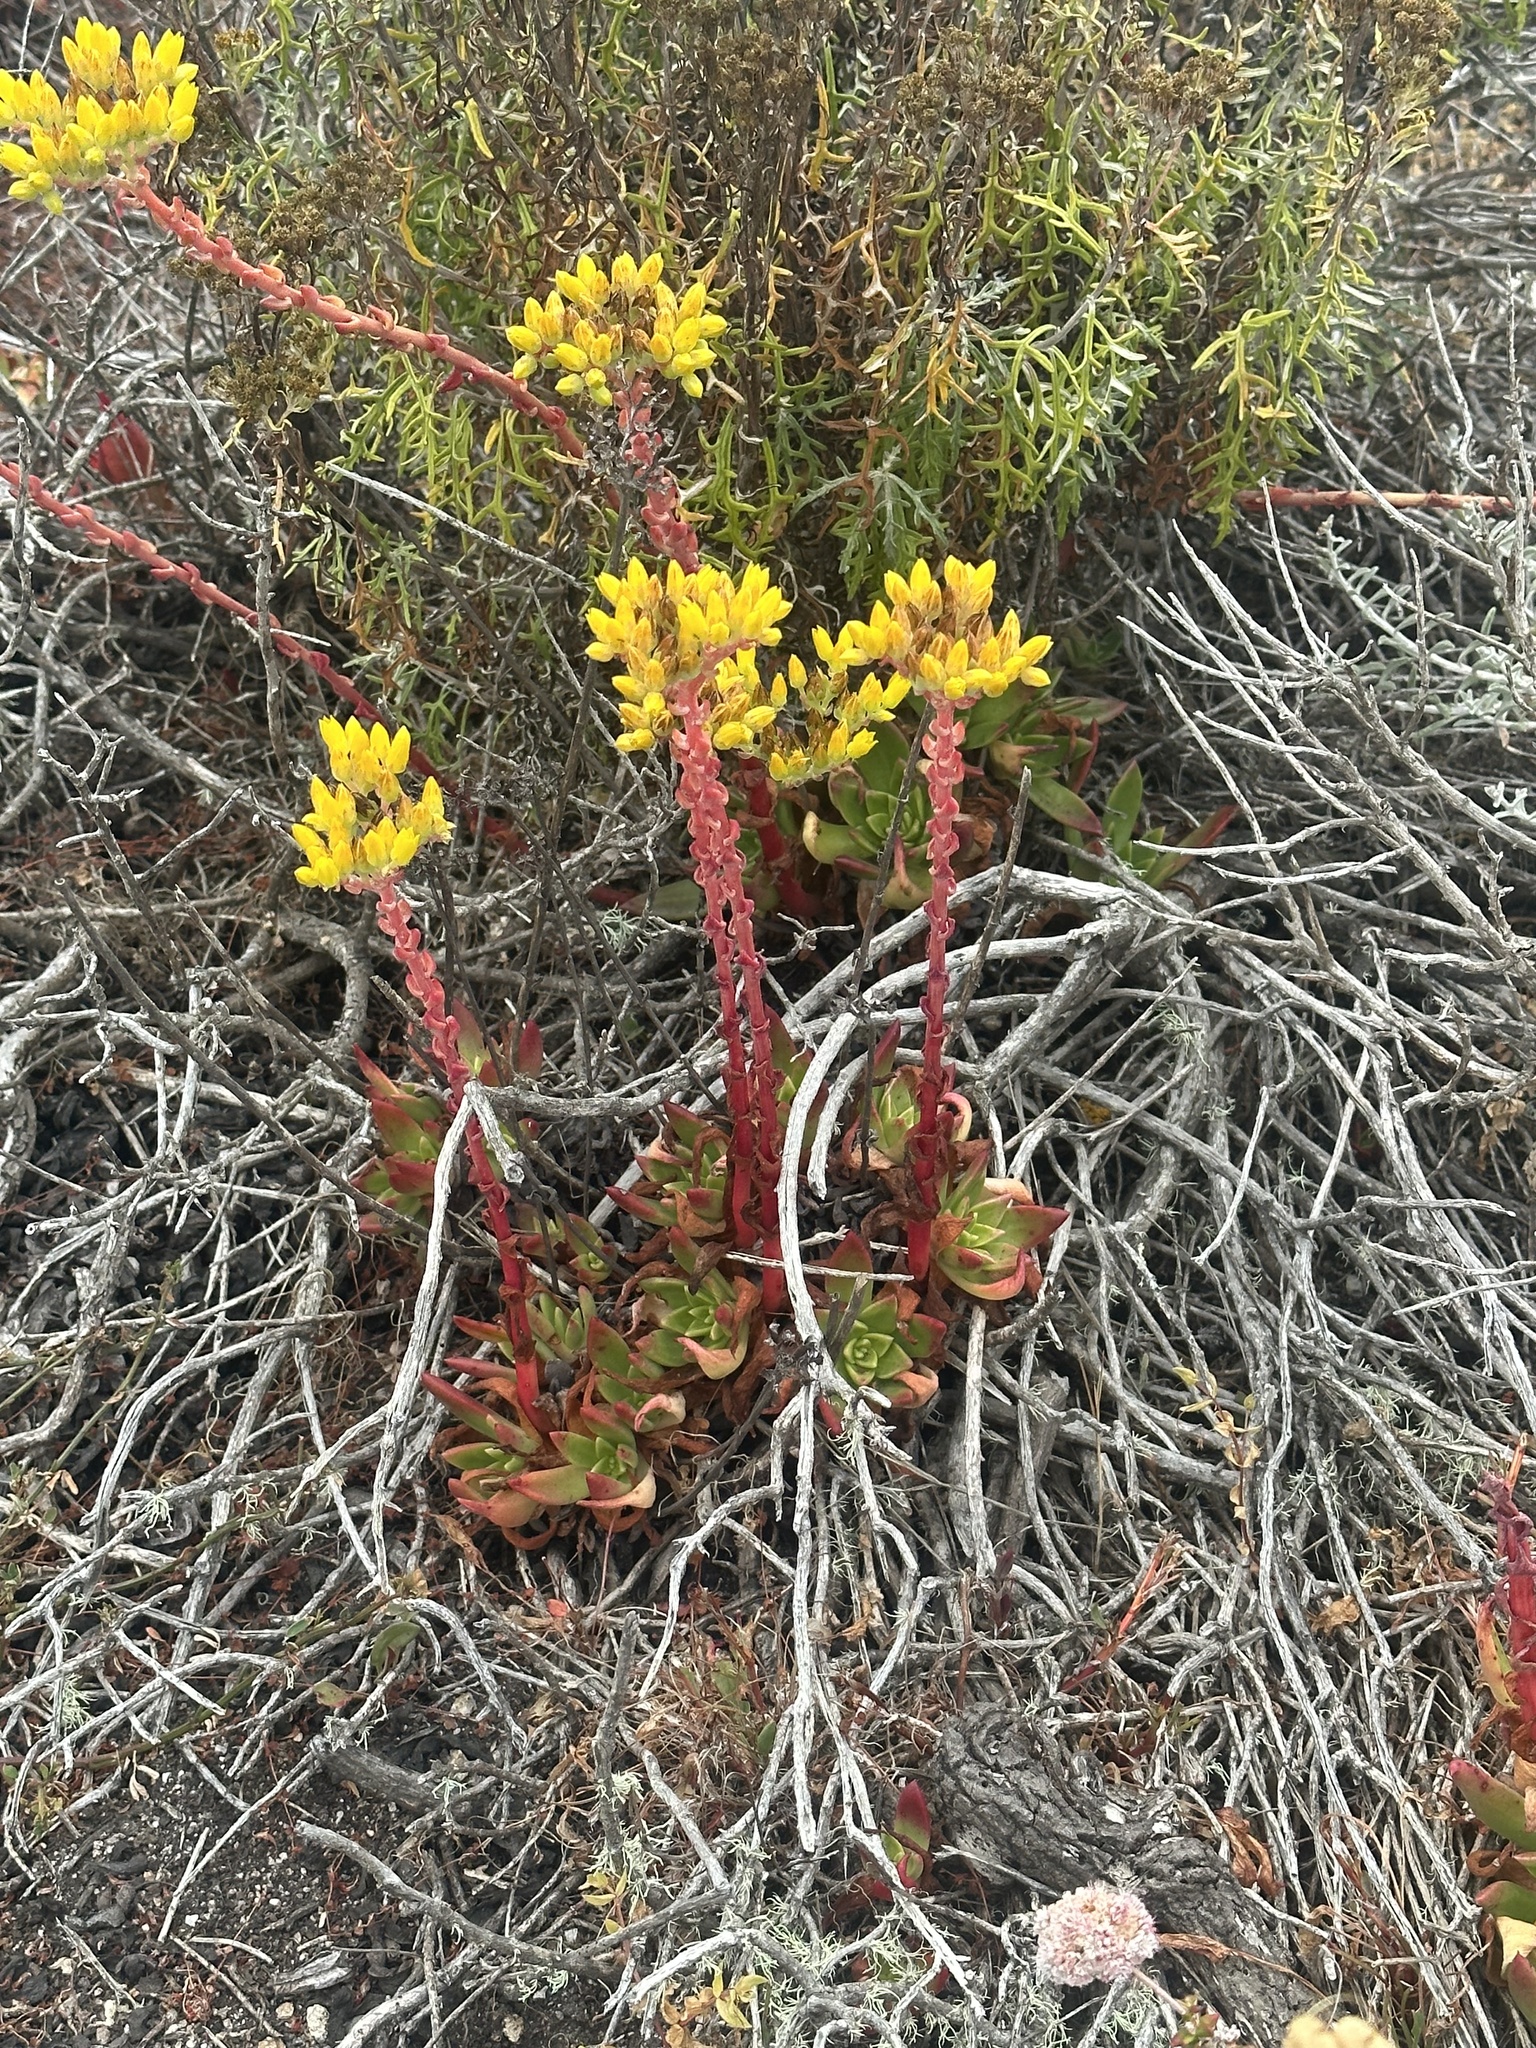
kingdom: Plantae
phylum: Tracheophyta
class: Magnoliopsida
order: Saxifragales
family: Crassulaceae
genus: Dudleya
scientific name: Dudleya caespitosa
